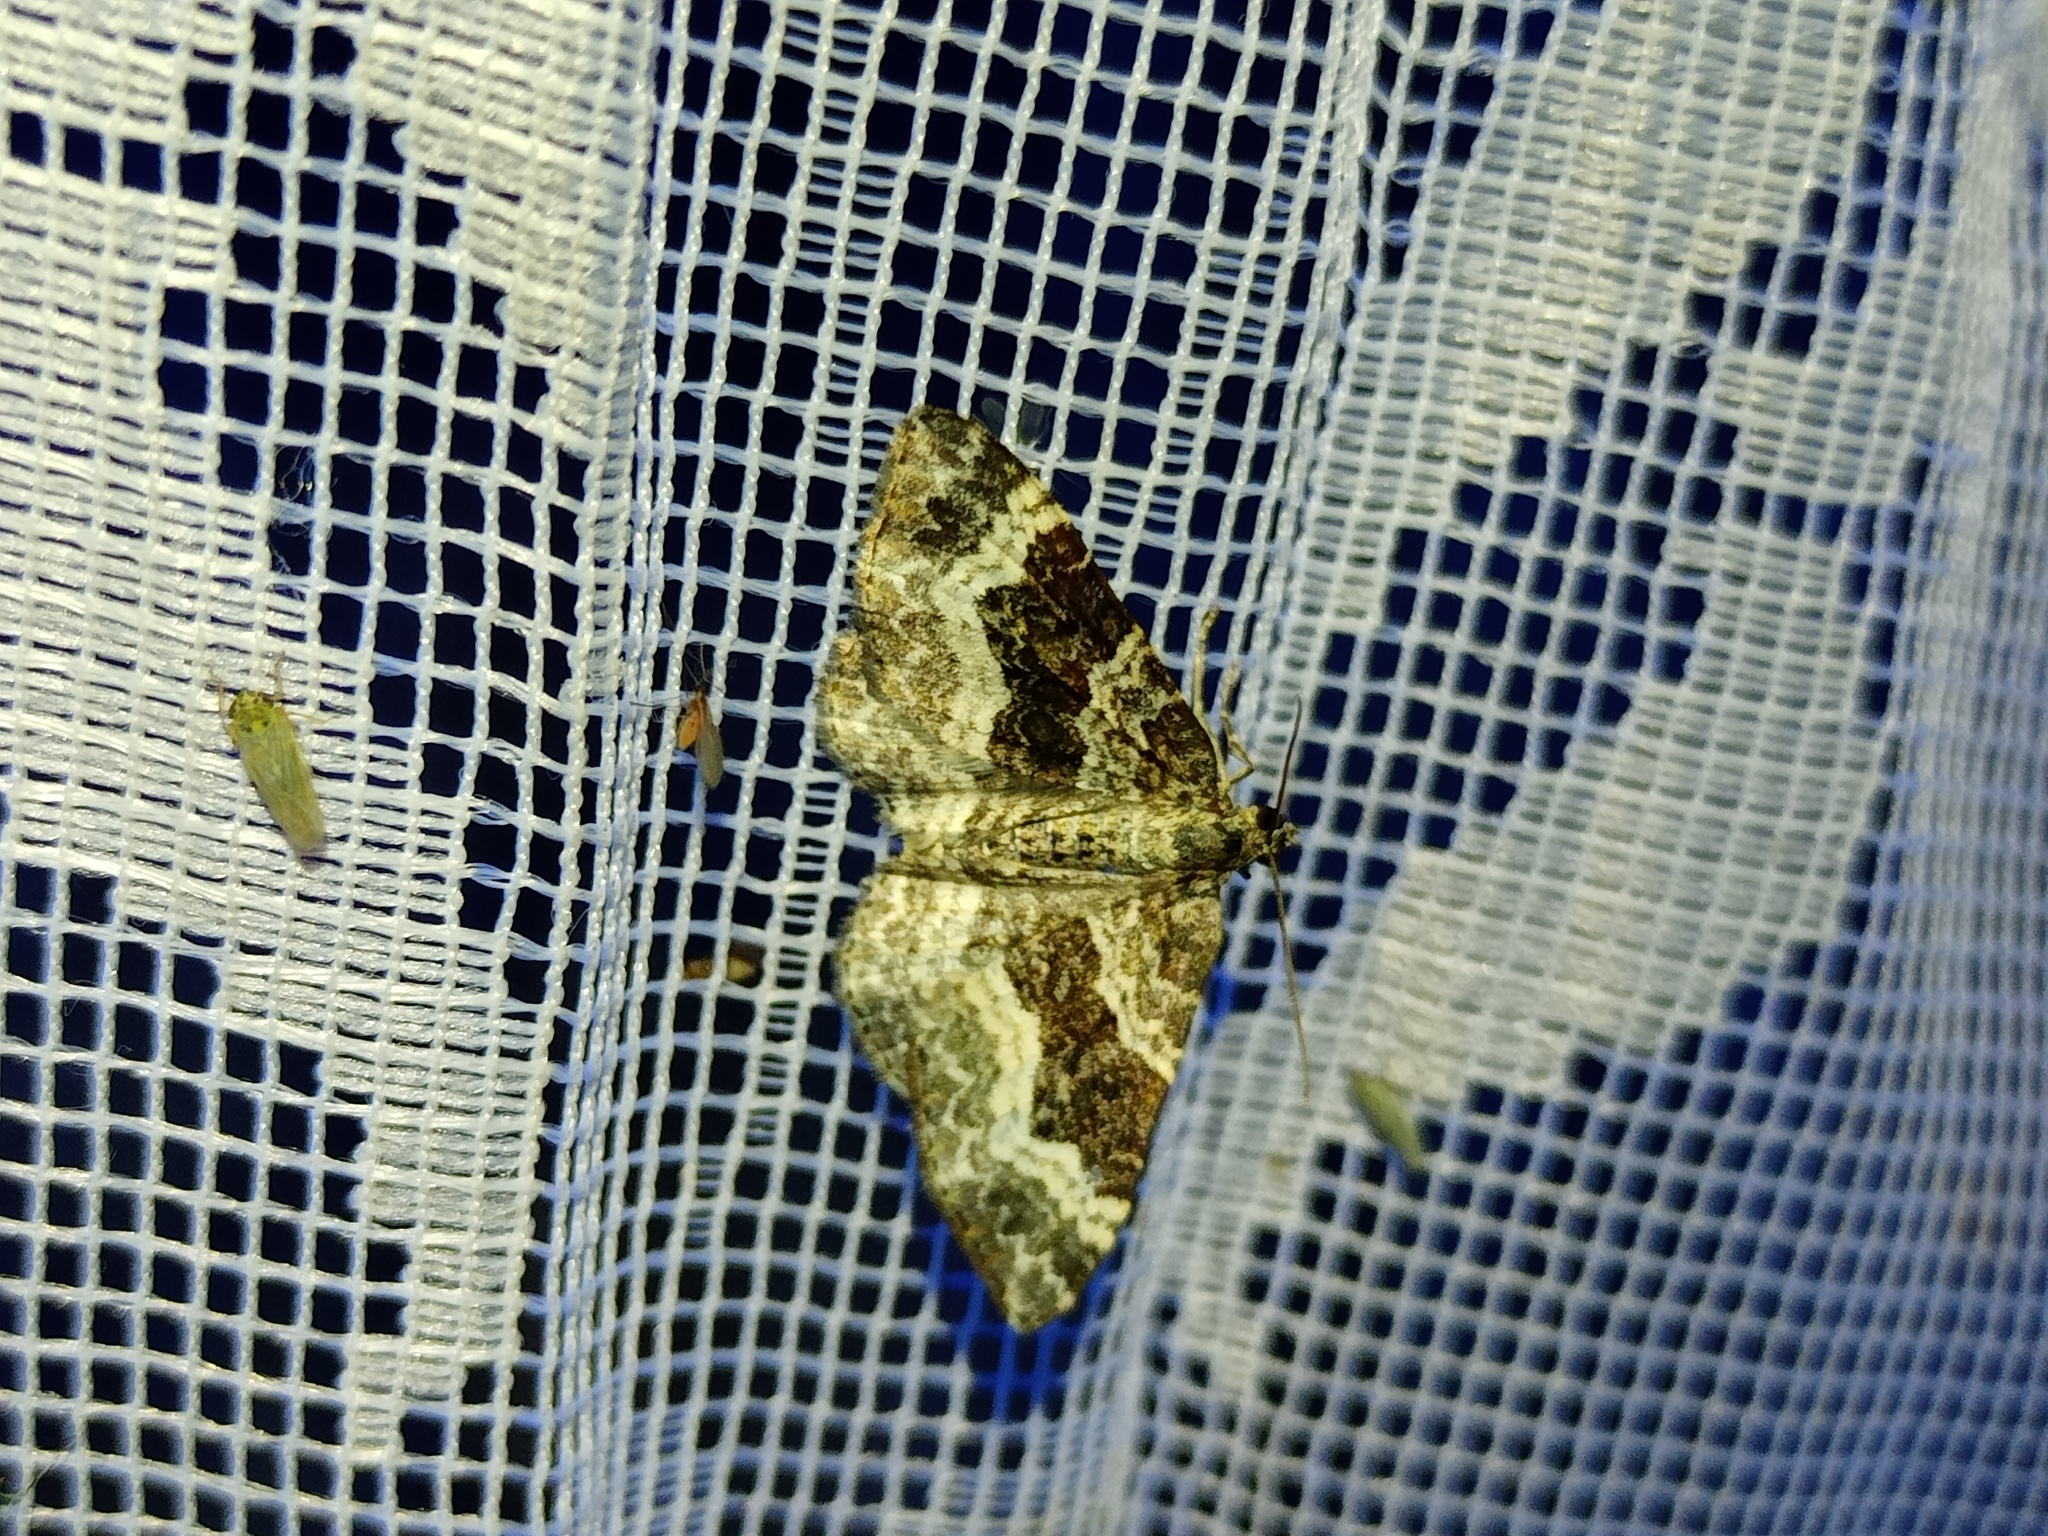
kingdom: Animalia
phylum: Arthropoda
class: Insecta
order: Lepidoptera
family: Geometridae
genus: Epirrhoe
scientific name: Epirrhoe alternata
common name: Common carpet
